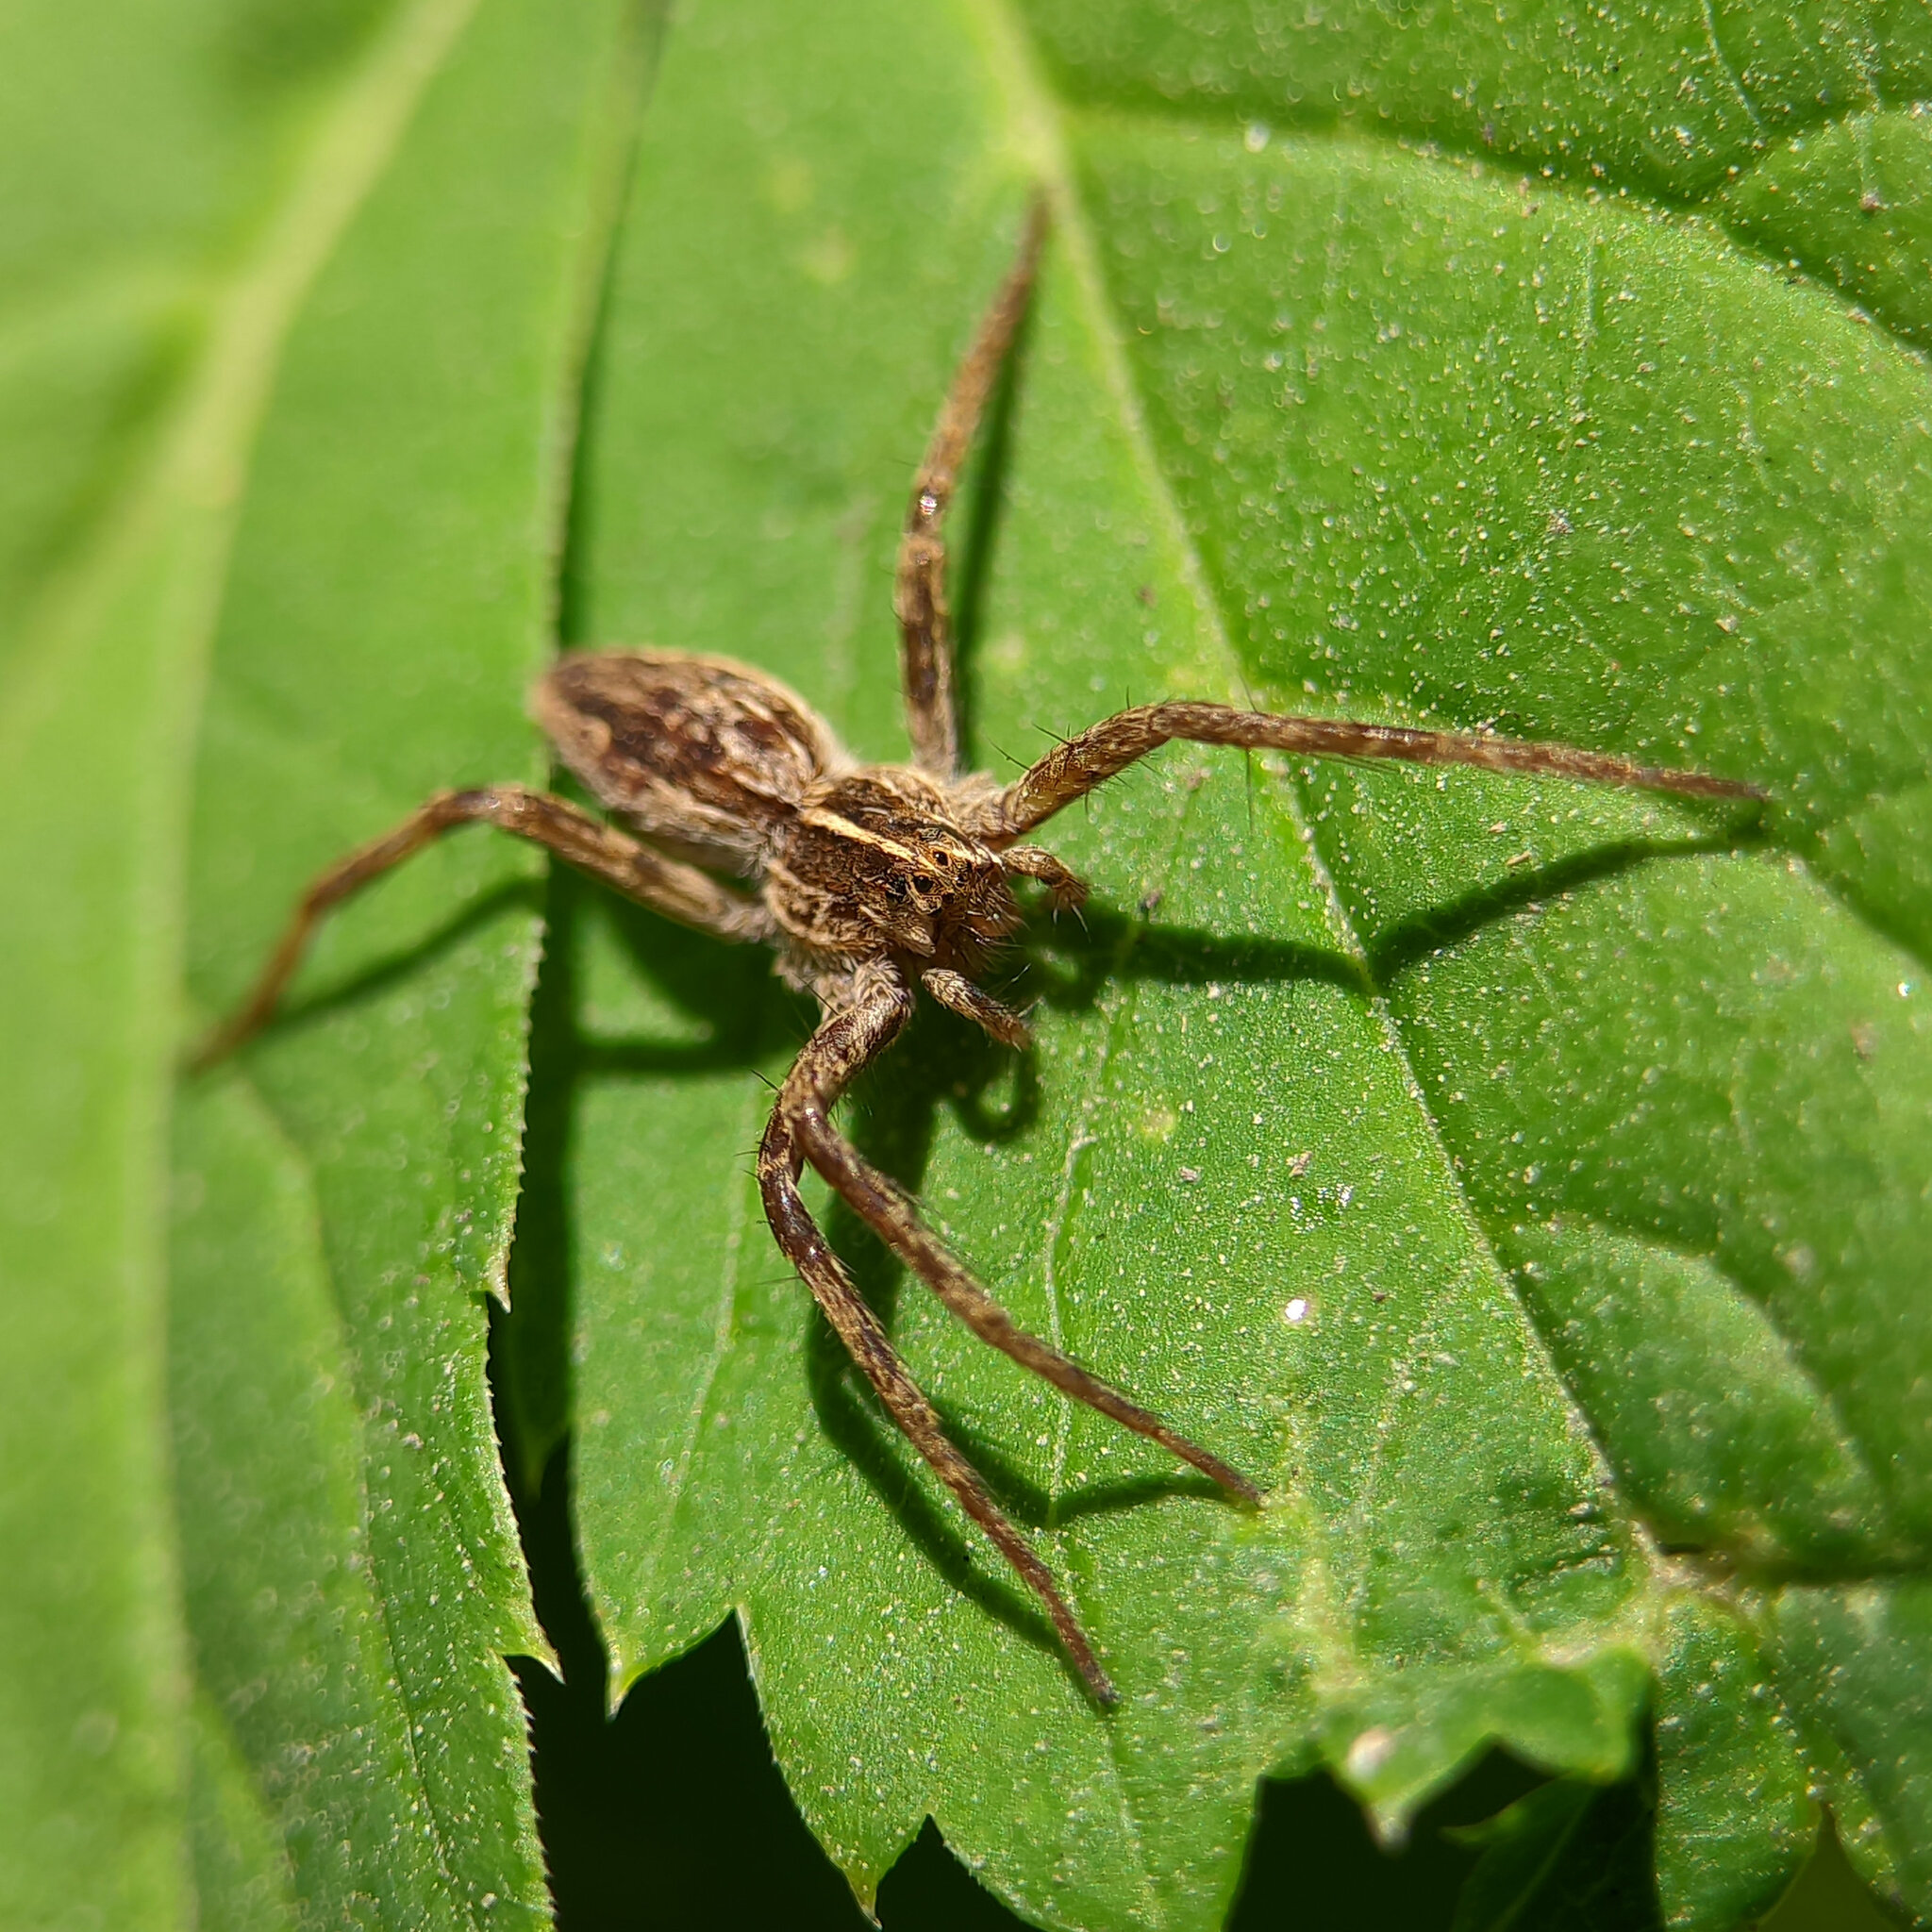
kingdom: Animalia
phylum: Arthropoda
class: Arachnida
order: Araneae
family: Pisauridae
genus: Pisaura
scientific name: Pisaura mirabilis
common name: Tent spider
